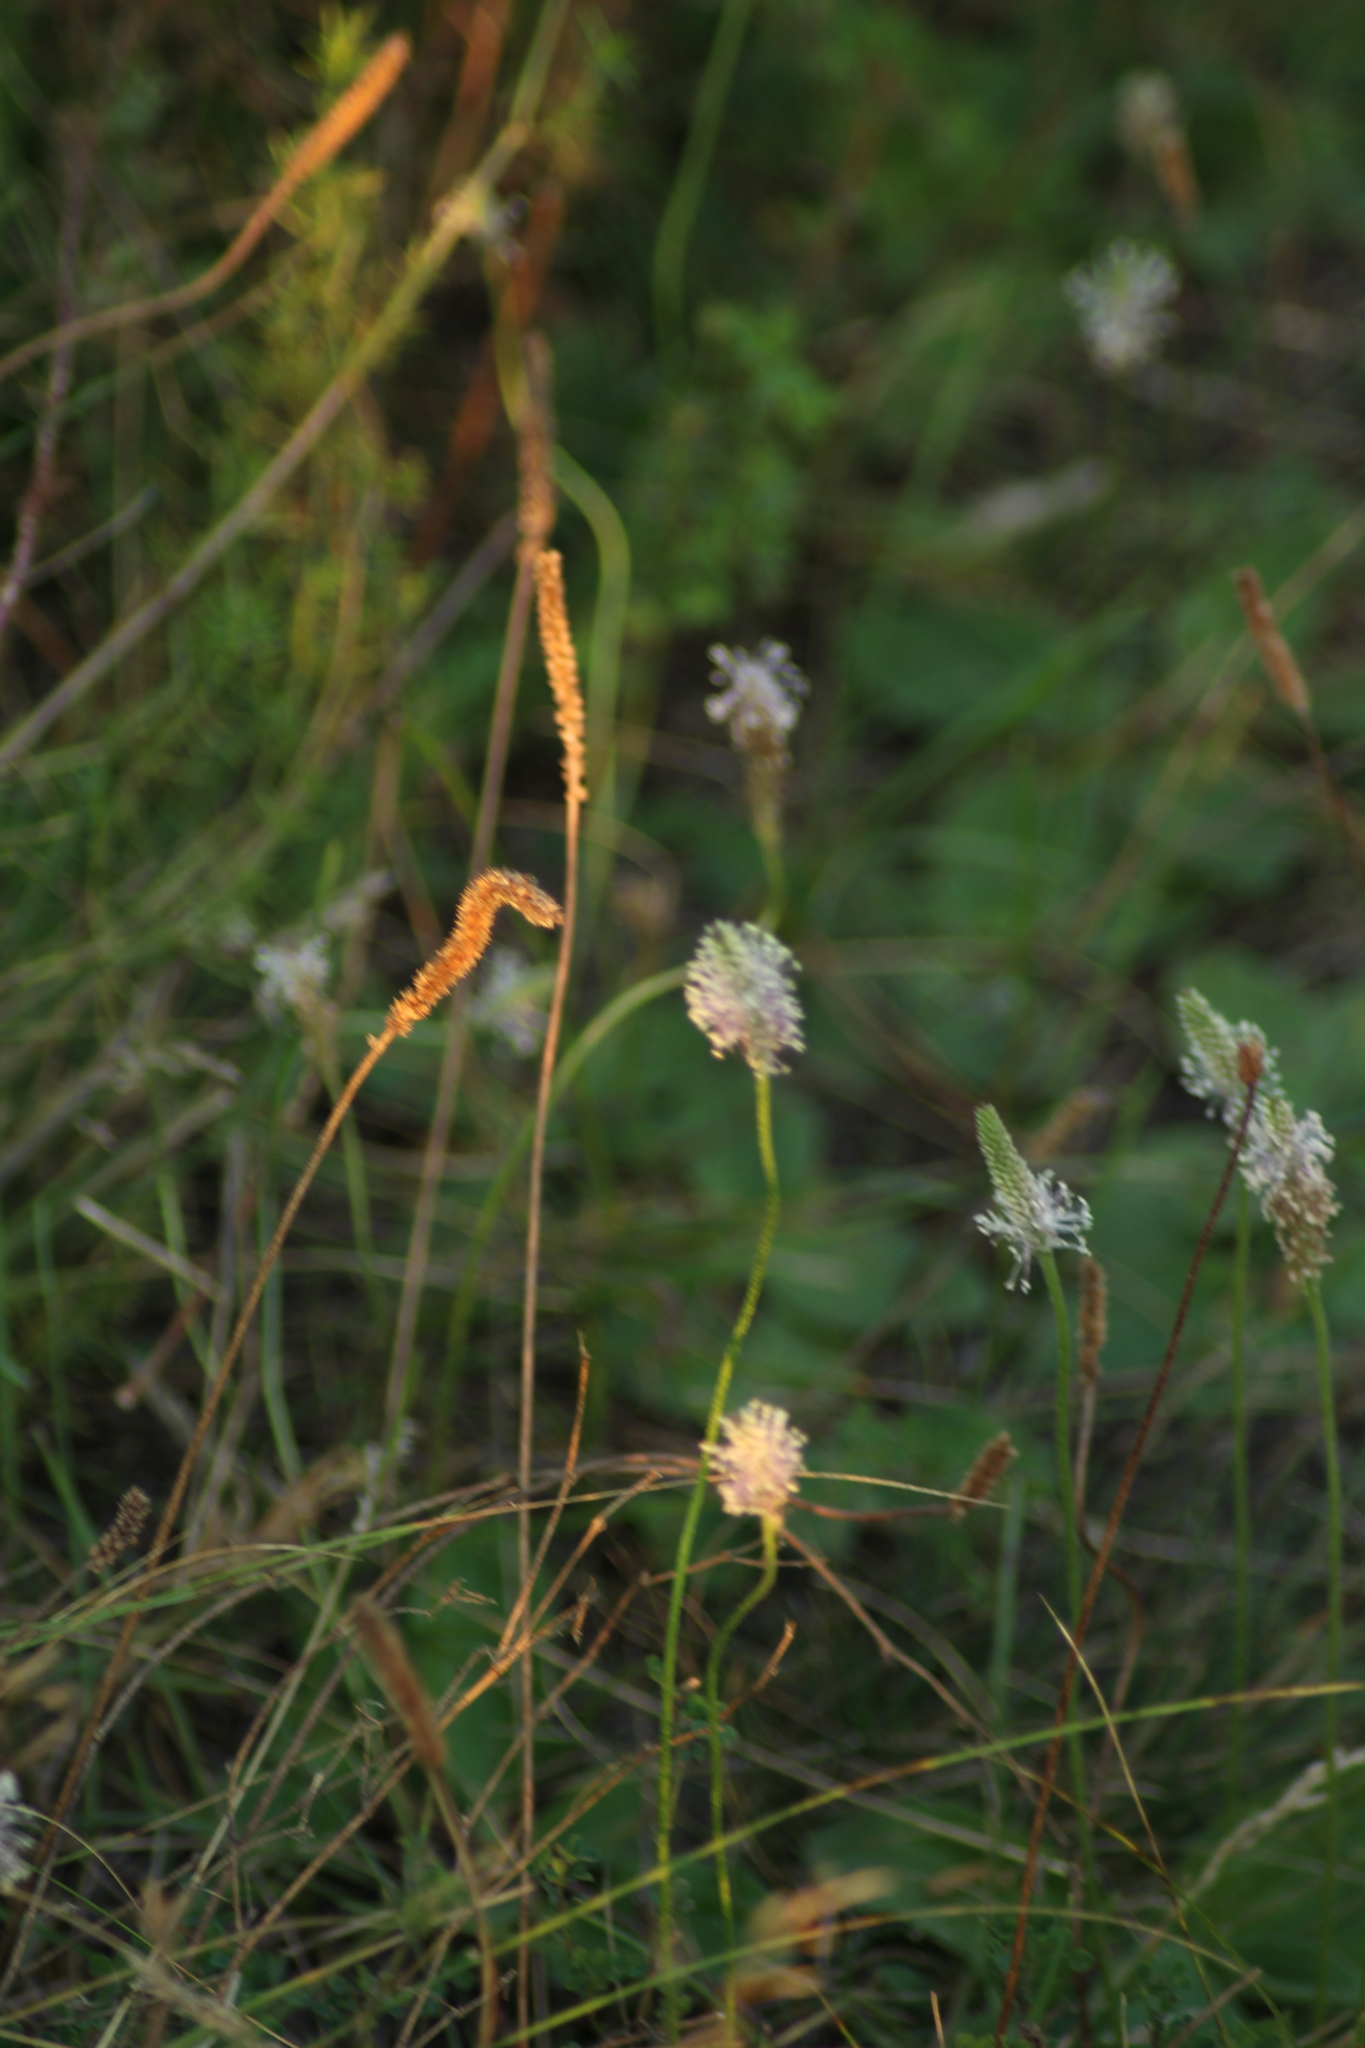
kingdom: Plantae
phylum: Tracheophyta
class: Magnoliopsida
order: Lamiales
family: Plantaginaceae
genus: Plantago
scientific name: Plantago media
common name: Hoary plantain
